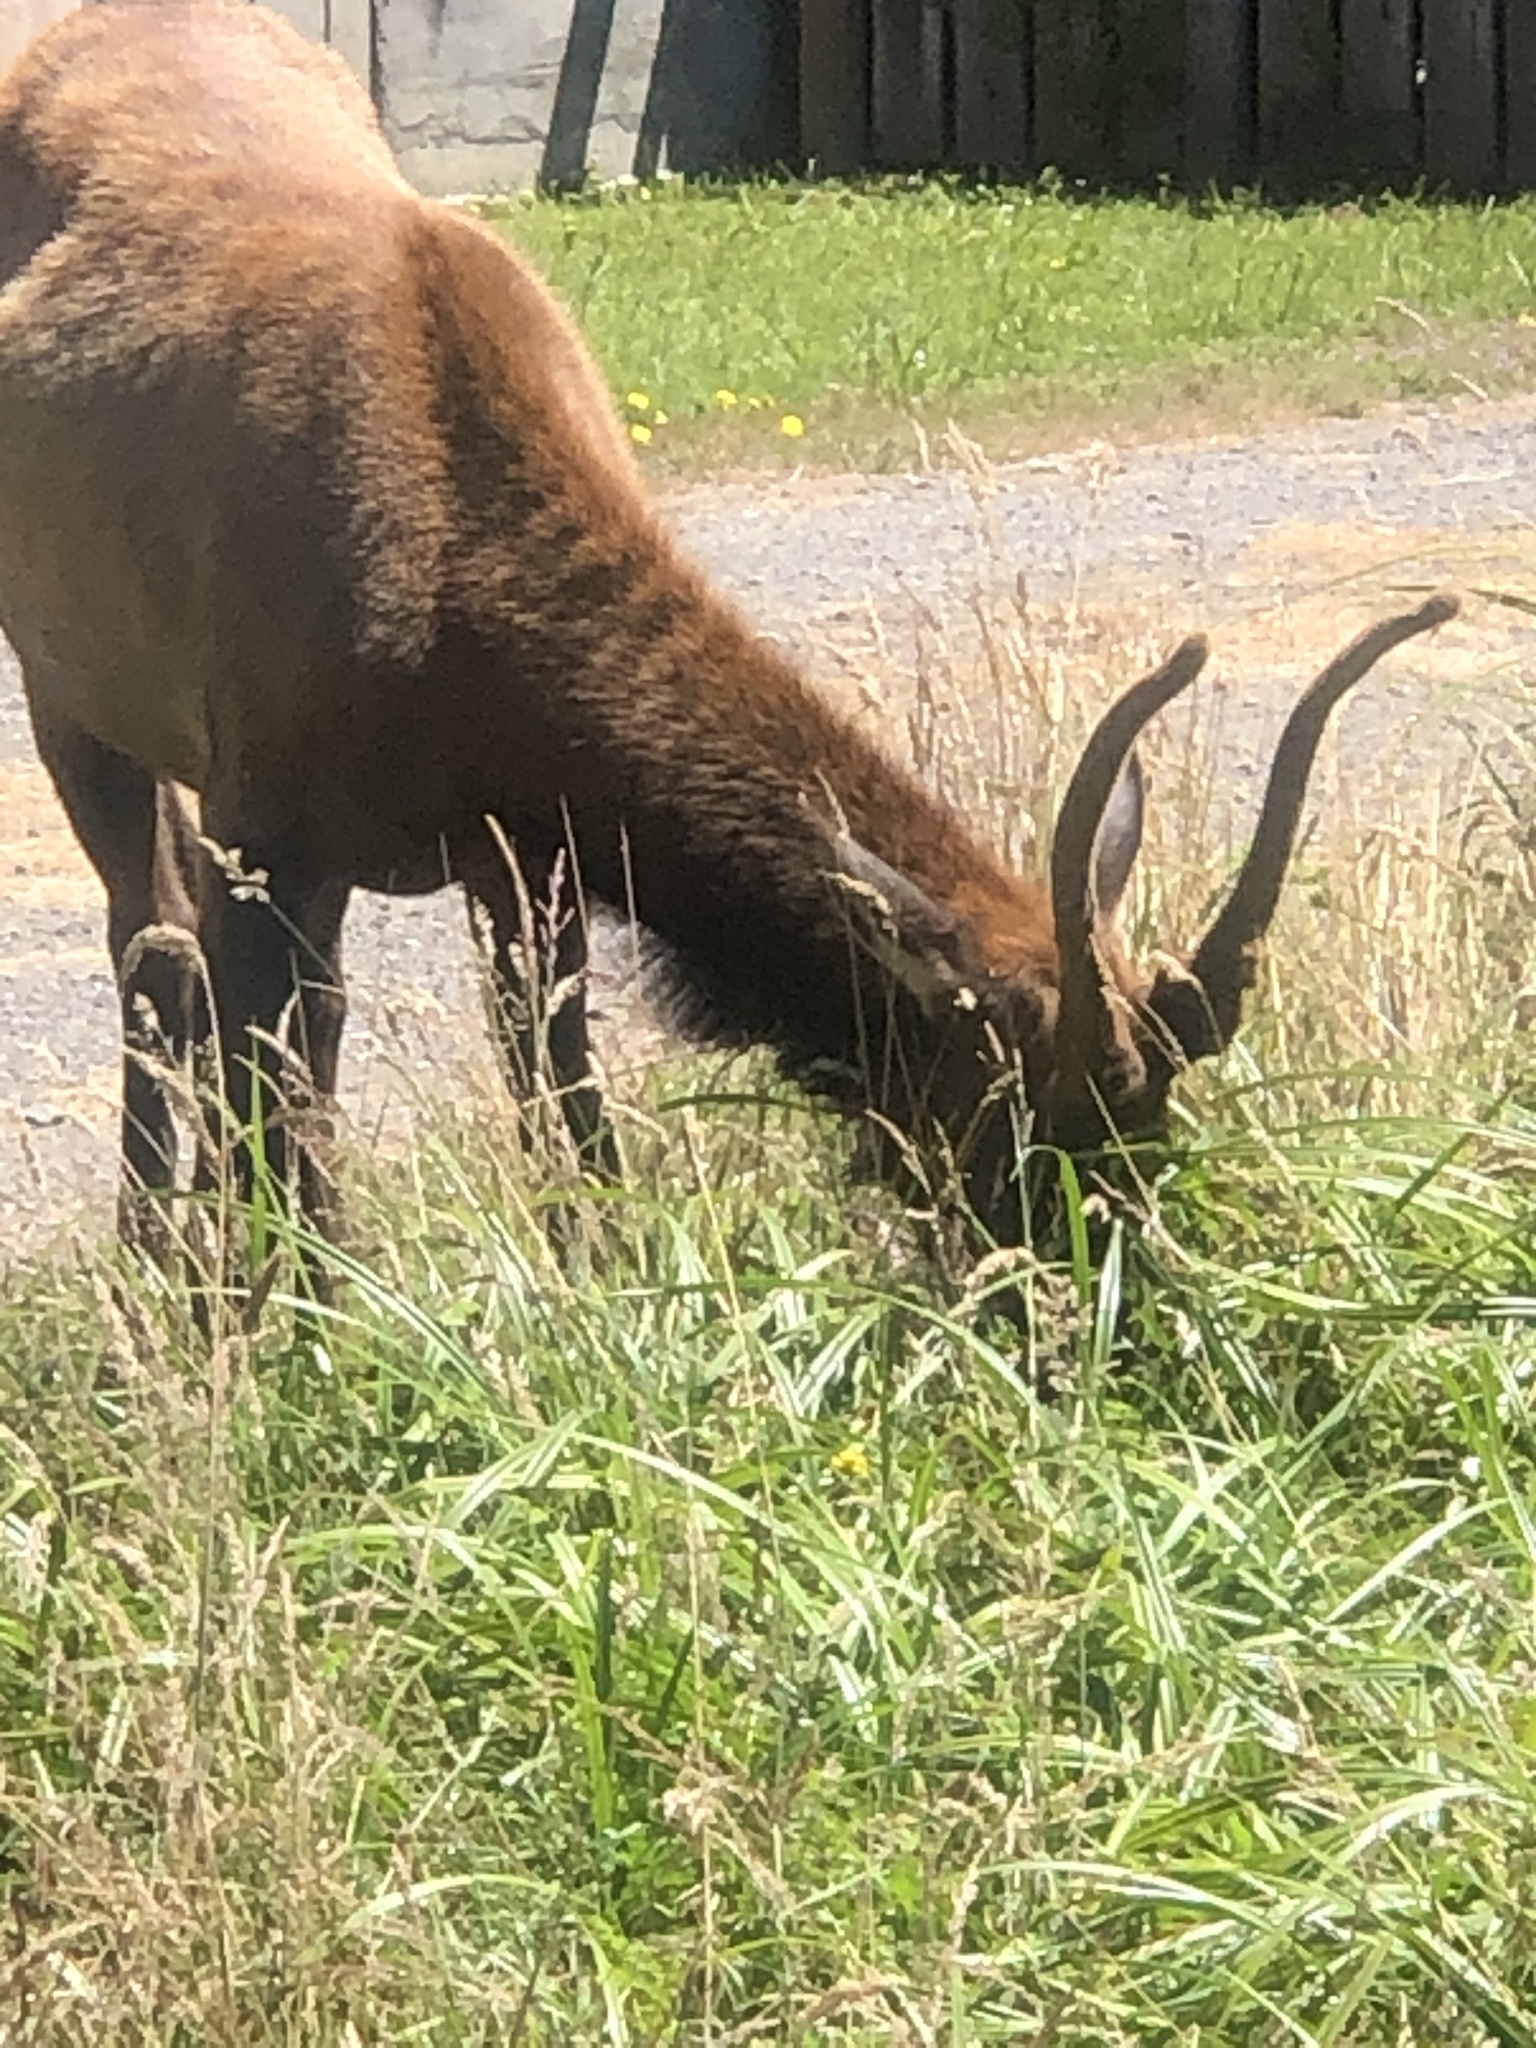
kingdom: Animalia
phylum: Chordata
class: Mammalia
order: Artiodactyla
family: Cervidae
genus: Cervus
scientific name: Cervus elaphus
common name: Red deer
